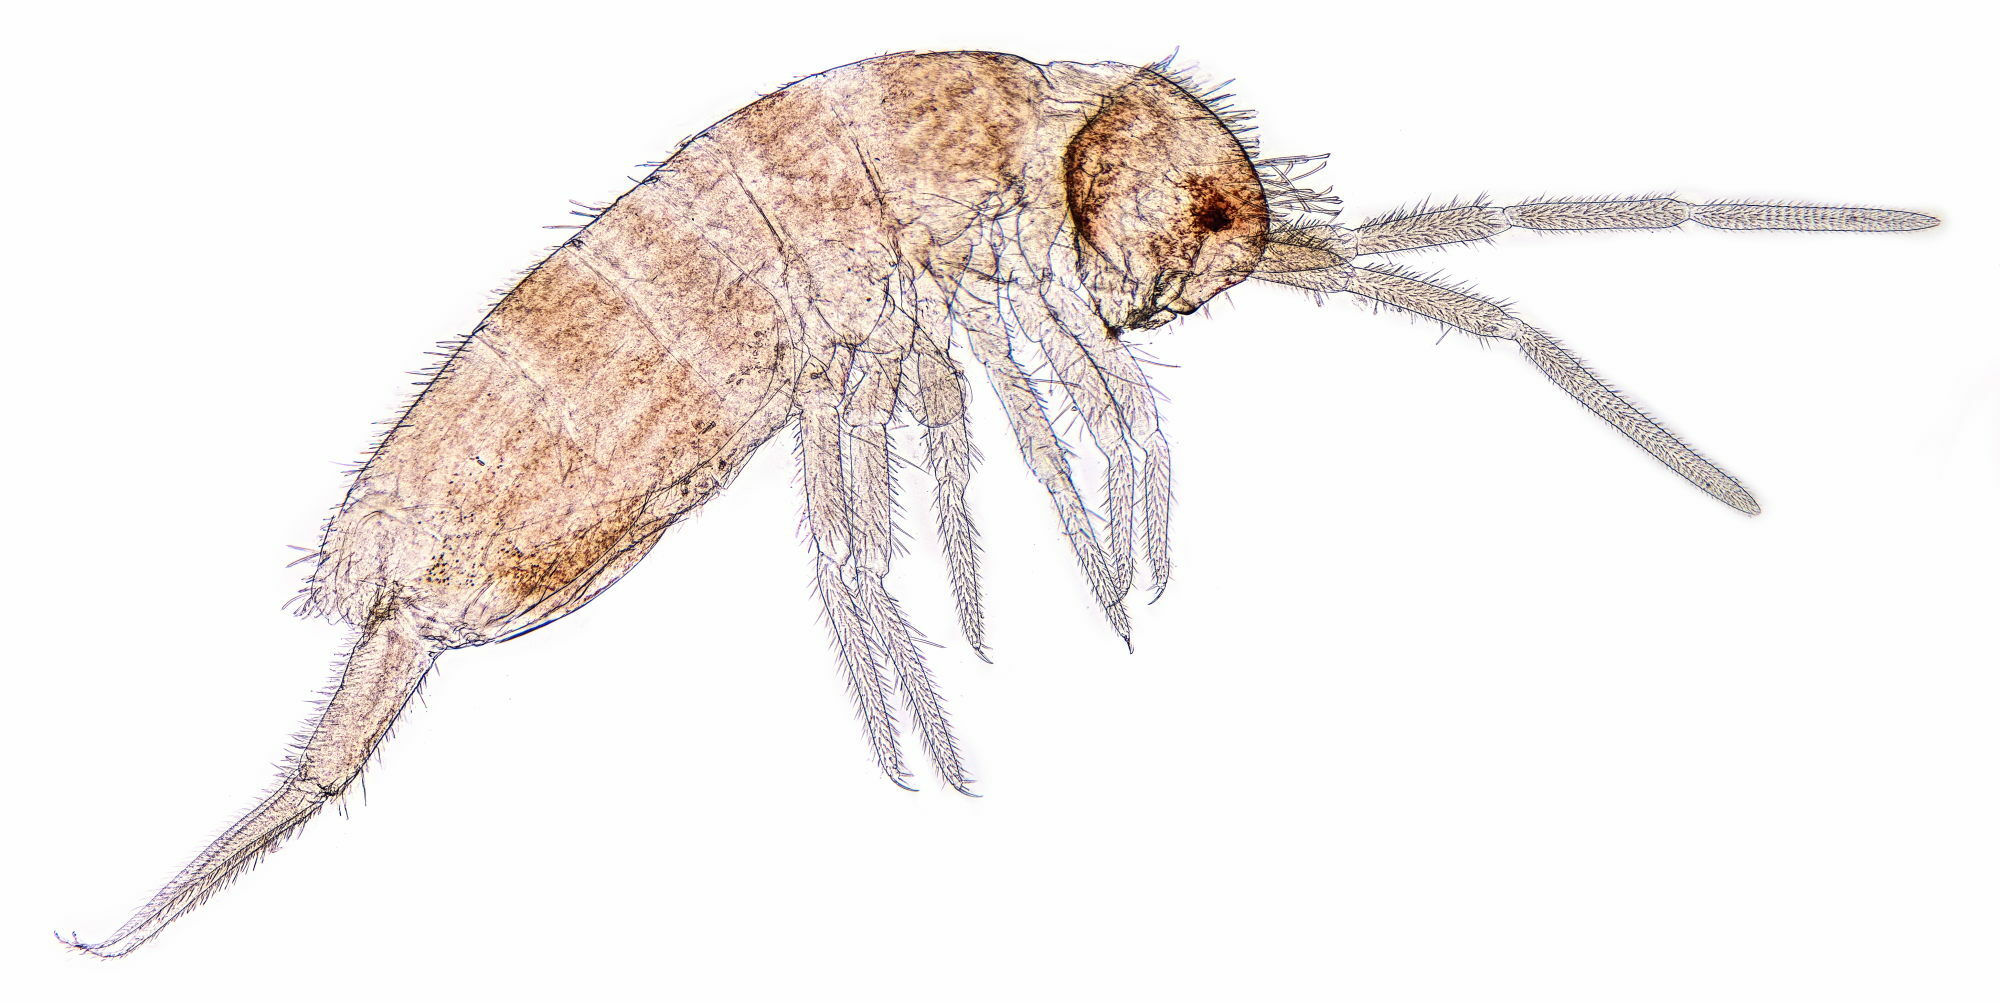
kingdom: Animalia
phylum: Arthropoda
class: Collembola
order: Entomobryomorpha
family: Orchesellidae
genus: Heteromurus
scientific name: Heteromurus nitidus
